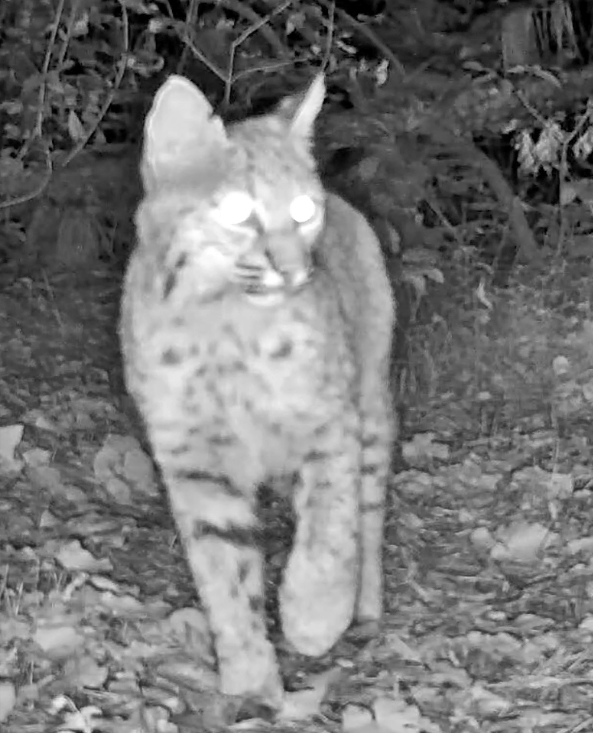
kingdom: Animalia
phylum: Chordata
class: Mammalia
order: Carnivora
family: Felidae
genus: Lynx
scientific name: Lynx rufus
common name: Bobcat
